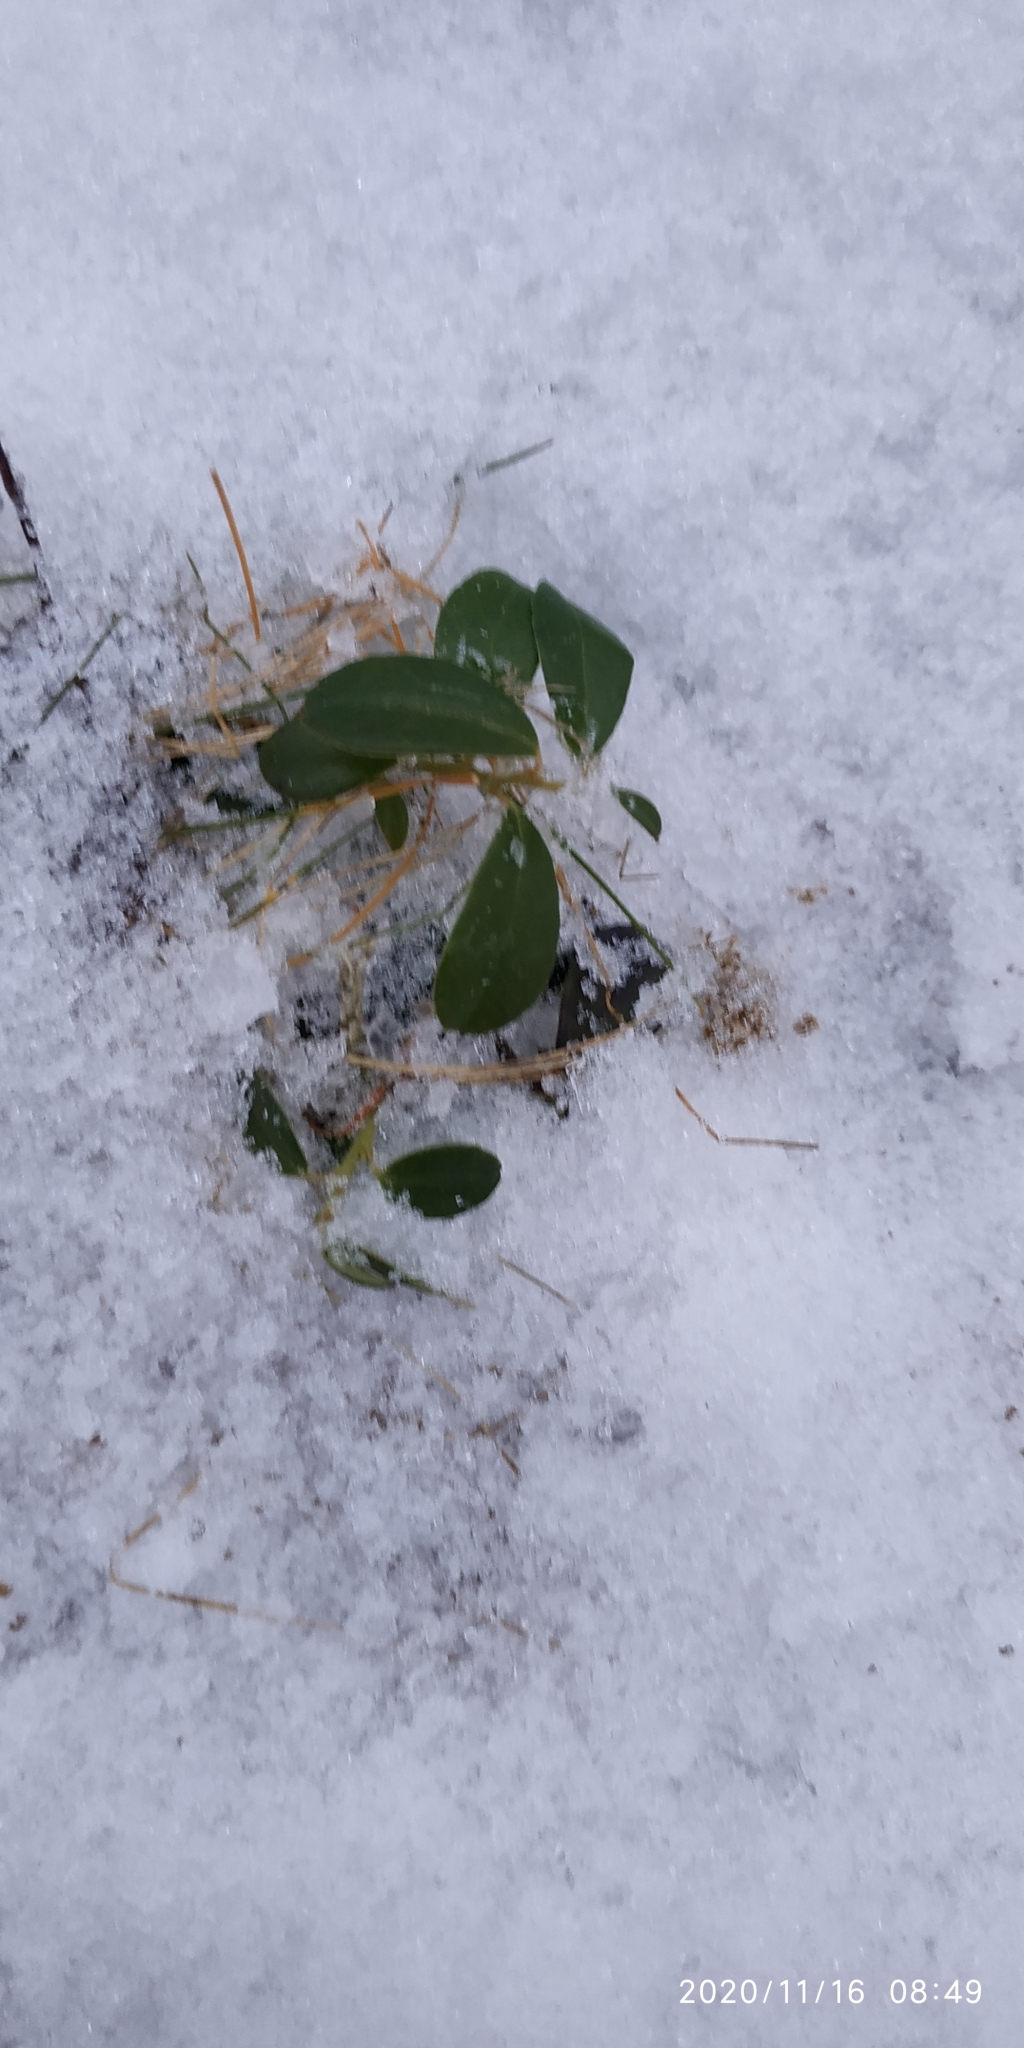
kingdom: Plantae
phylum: Tracheophyta
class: Magnoliopsida
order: Ericales
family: Ericaceae
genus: Vaccinium
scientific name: Vaccinium vitis-idaea
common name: Cowberry
